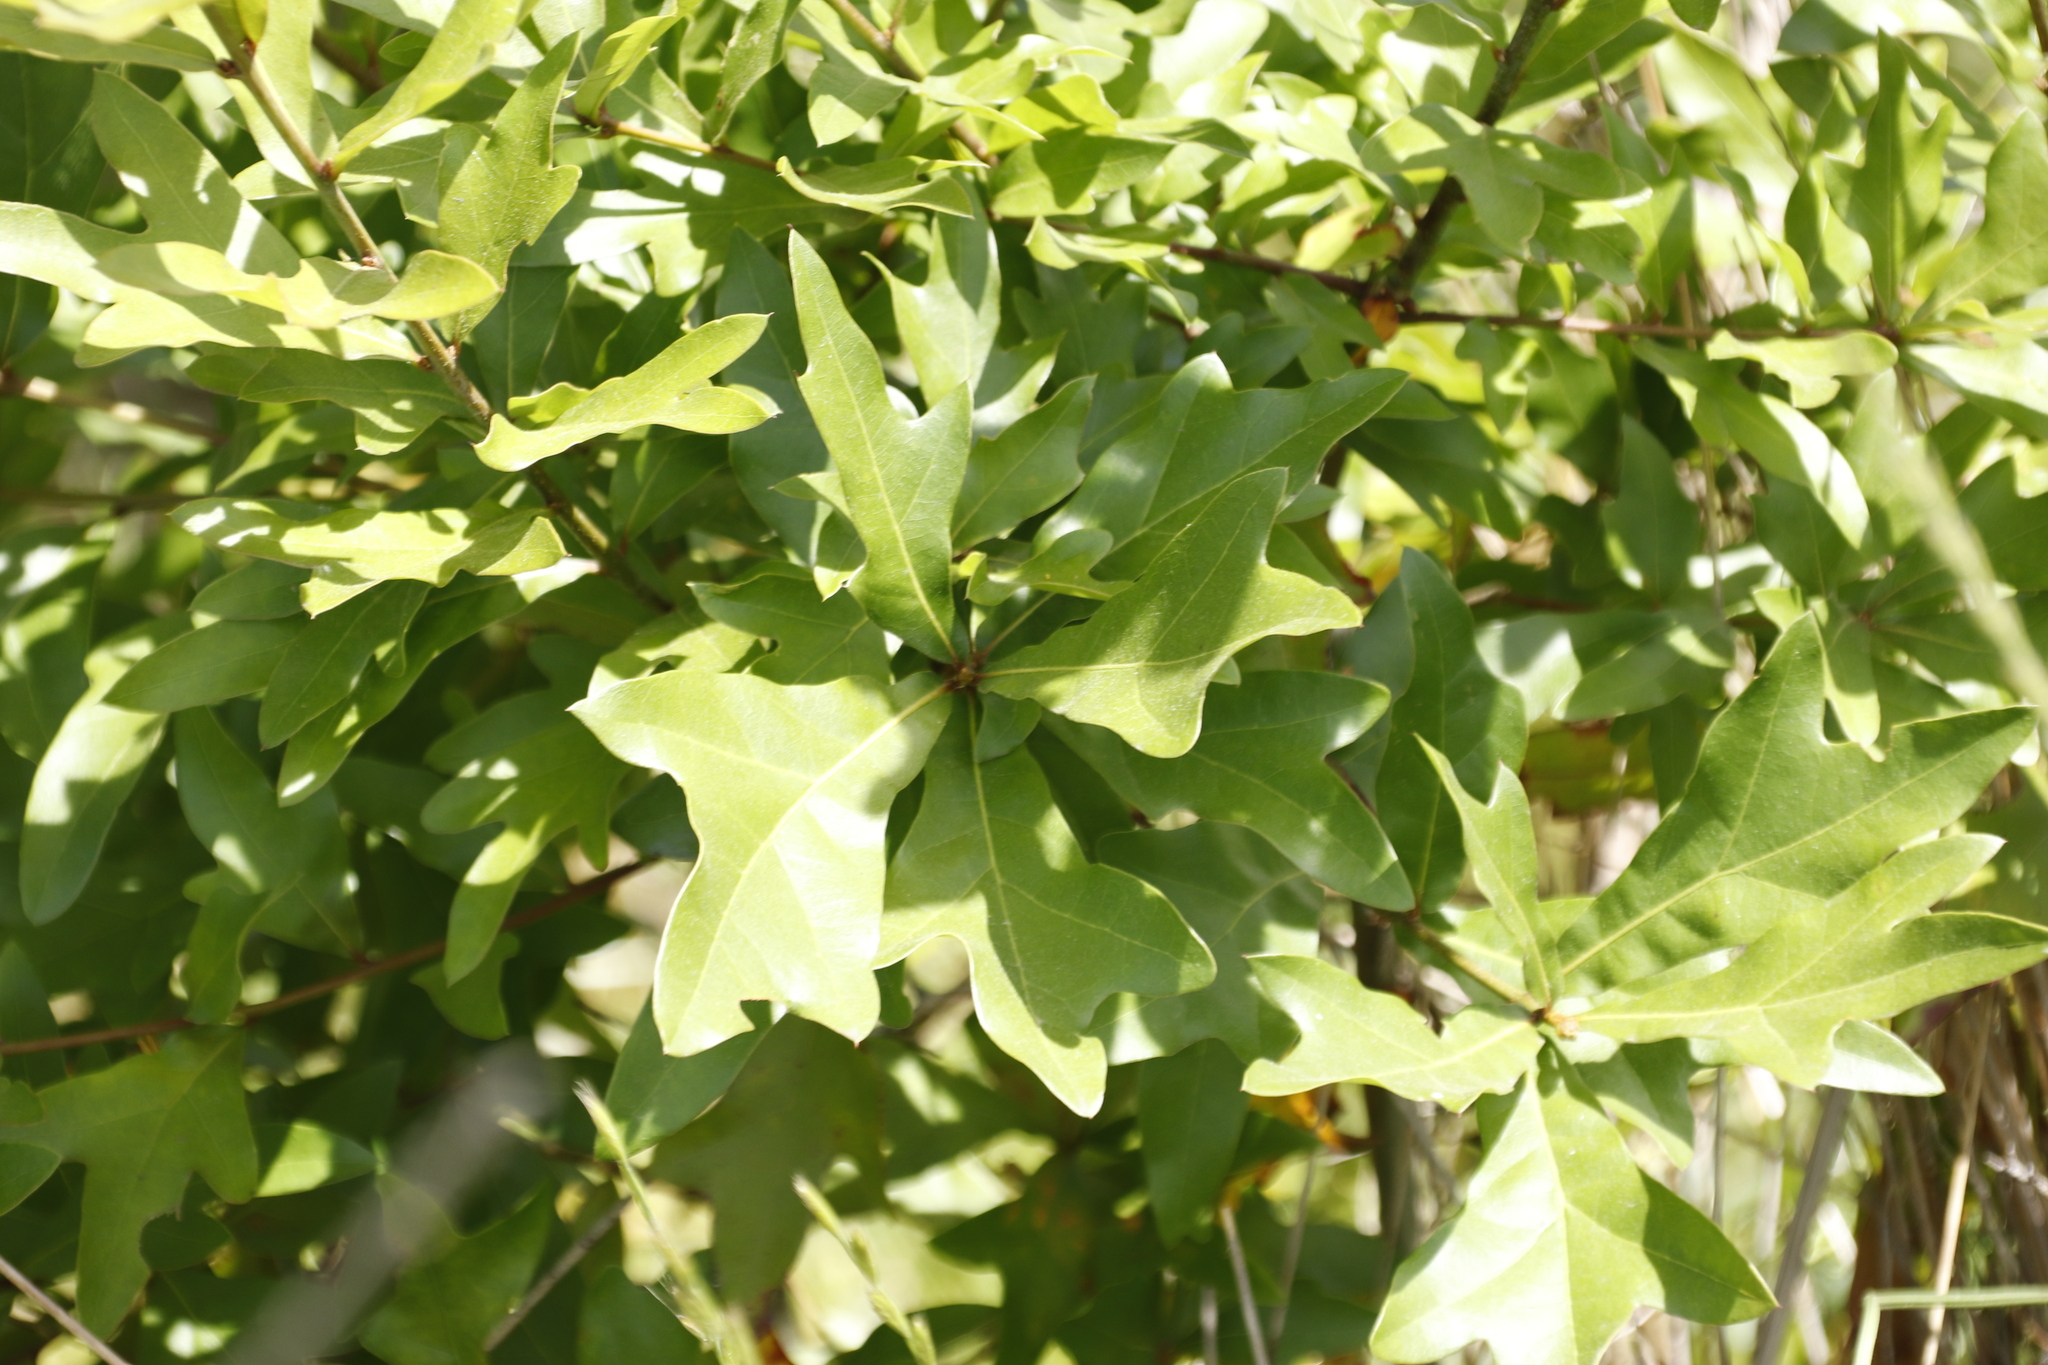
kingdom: Plantae
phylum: Tracheophyta
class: Magnoliopsida
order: Fagales
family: Fagaceae
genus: Quercus
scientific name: Quercus nigra
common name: Water oak
